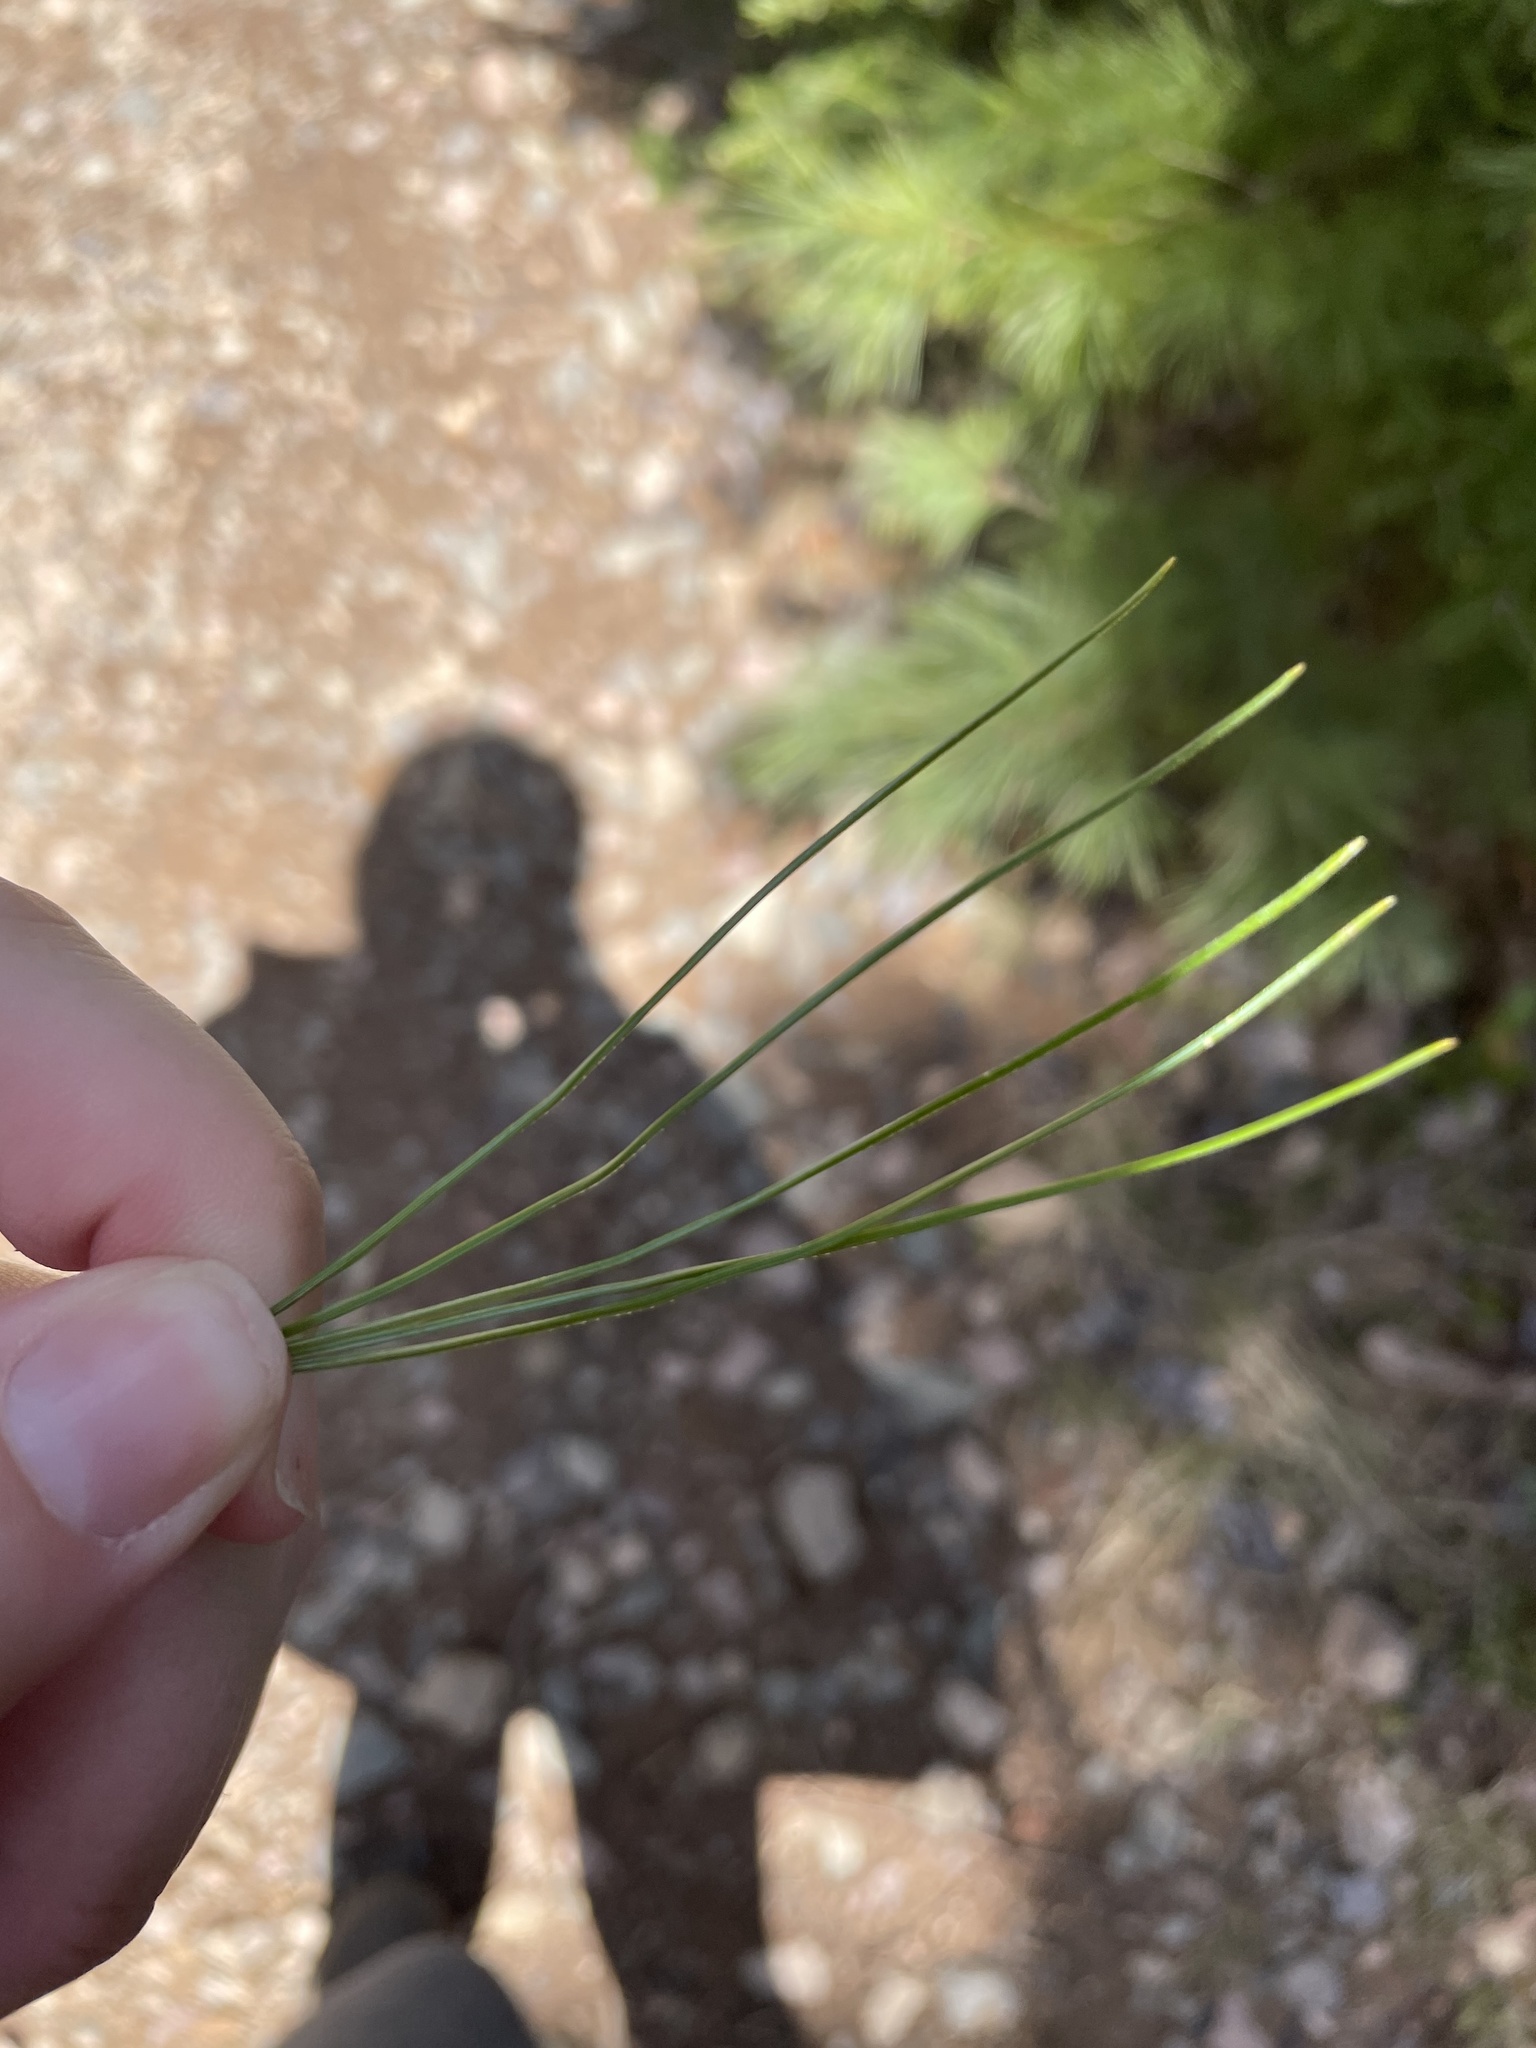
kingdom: Plantae
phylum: Tracheophyta
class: Pinopsida
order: Pinales
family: Pinaceae
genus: Pinus
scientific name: Pinus strobus
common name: Weymouth pine
